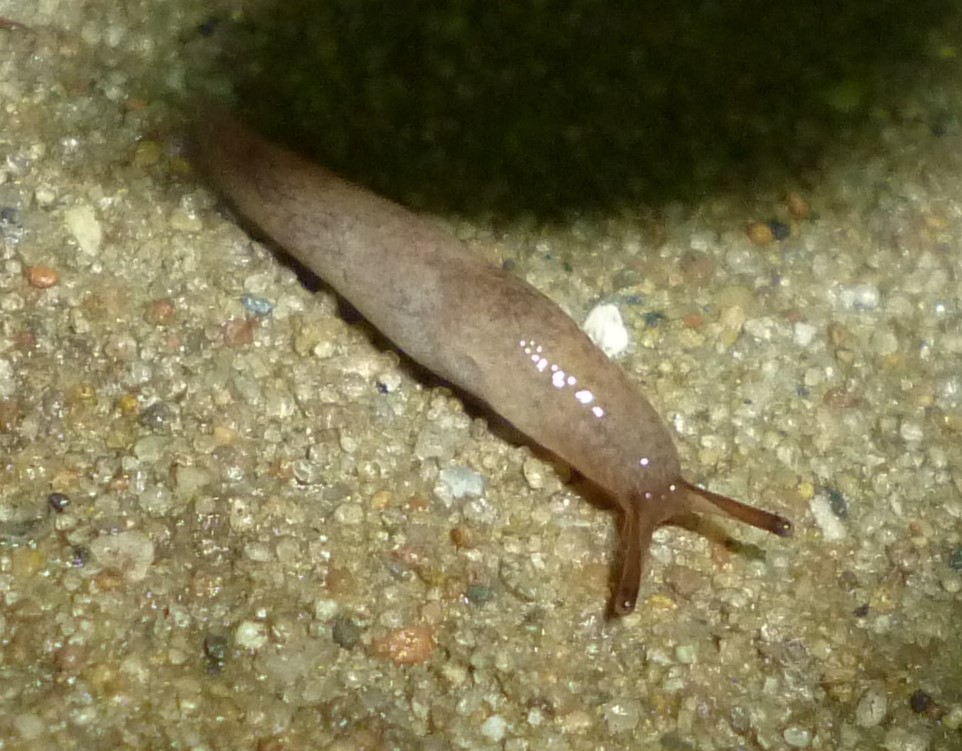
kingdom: Animalia
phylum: Mollusca
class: Gastropoda
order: Stylommatophora
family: Agriolimacidae
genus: Deroceras
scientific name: Deroceras reticulatum
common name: Gray field slug
